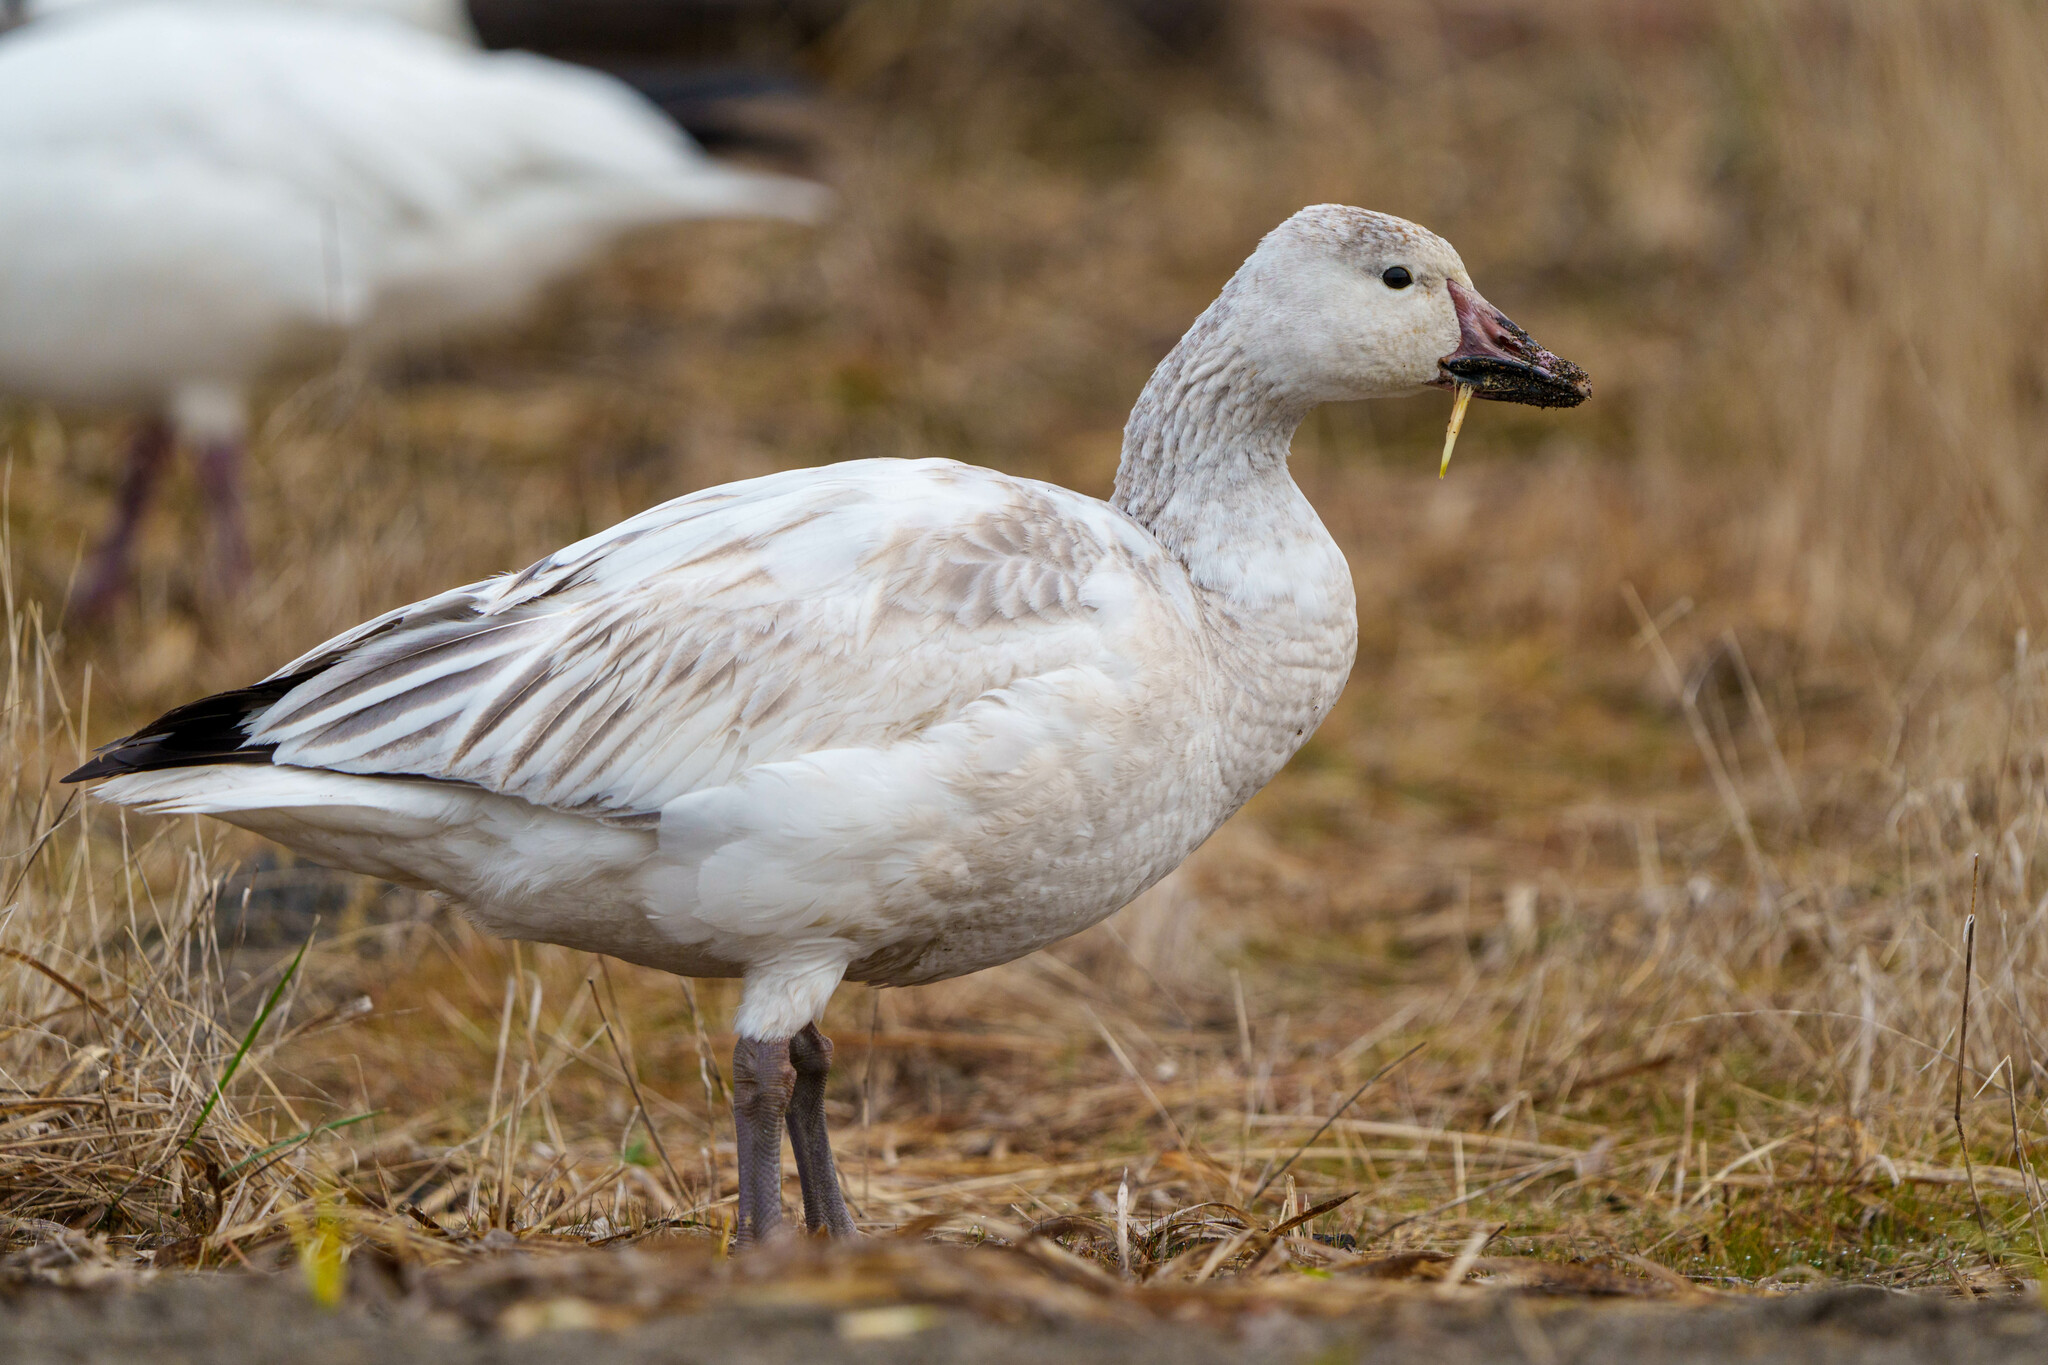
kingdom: Animalia
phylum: Chordata
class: Aves
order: Anseriformes
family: Anatidae
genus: Anser
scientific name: Anser caerulescens
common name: Snow goose
